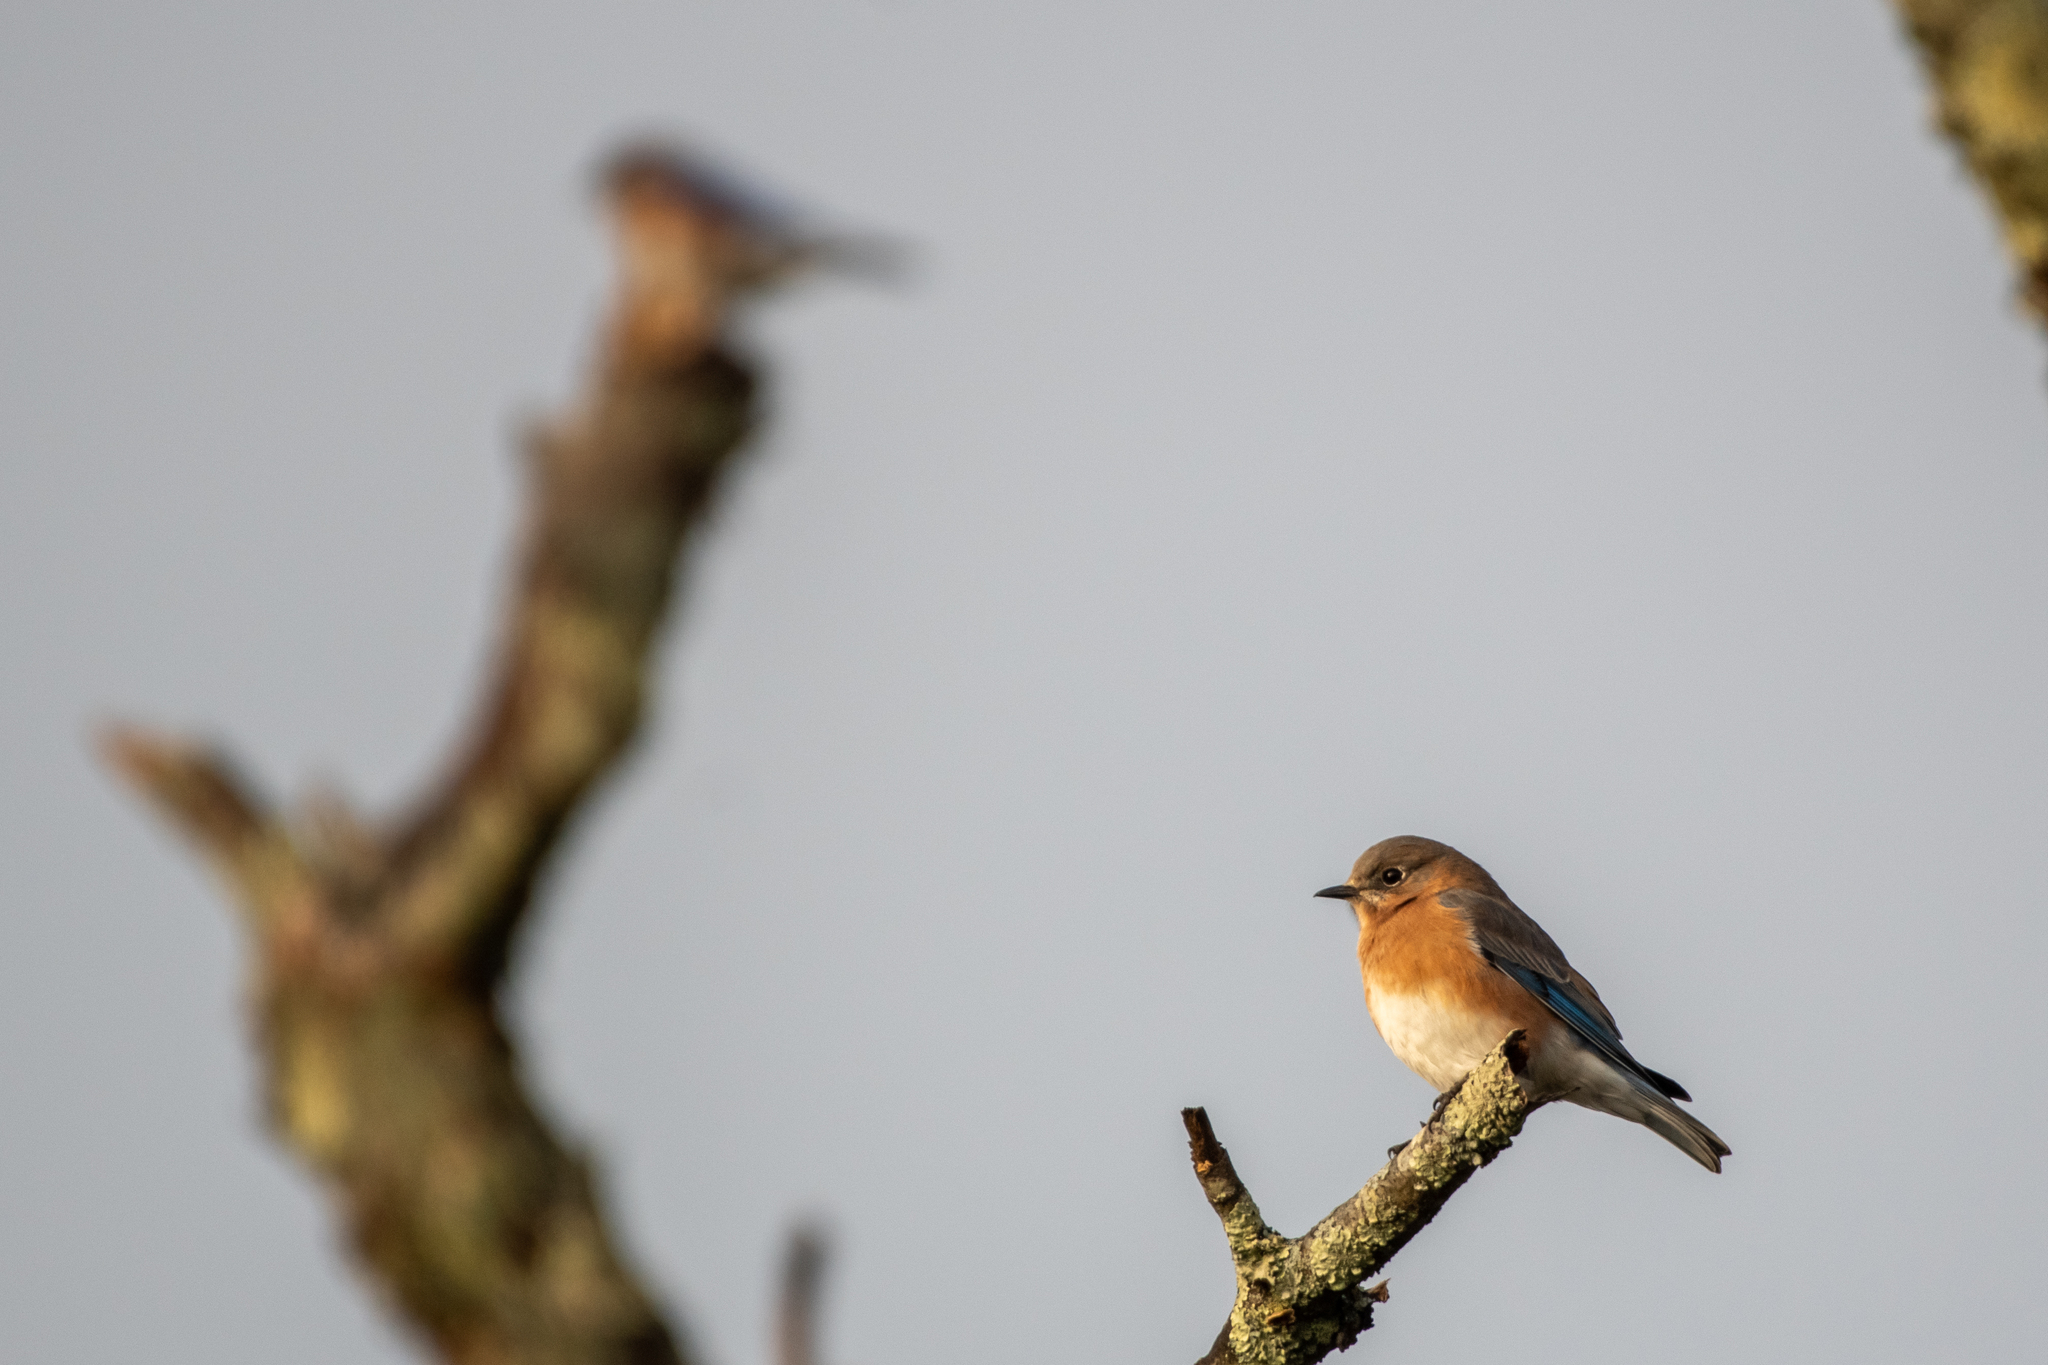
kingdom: Animalia
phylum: Chordata
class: Aves
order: Passeriformes
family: Turdidae
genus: Sialia
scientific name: Sialia sialis
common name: Eastern bluebird
